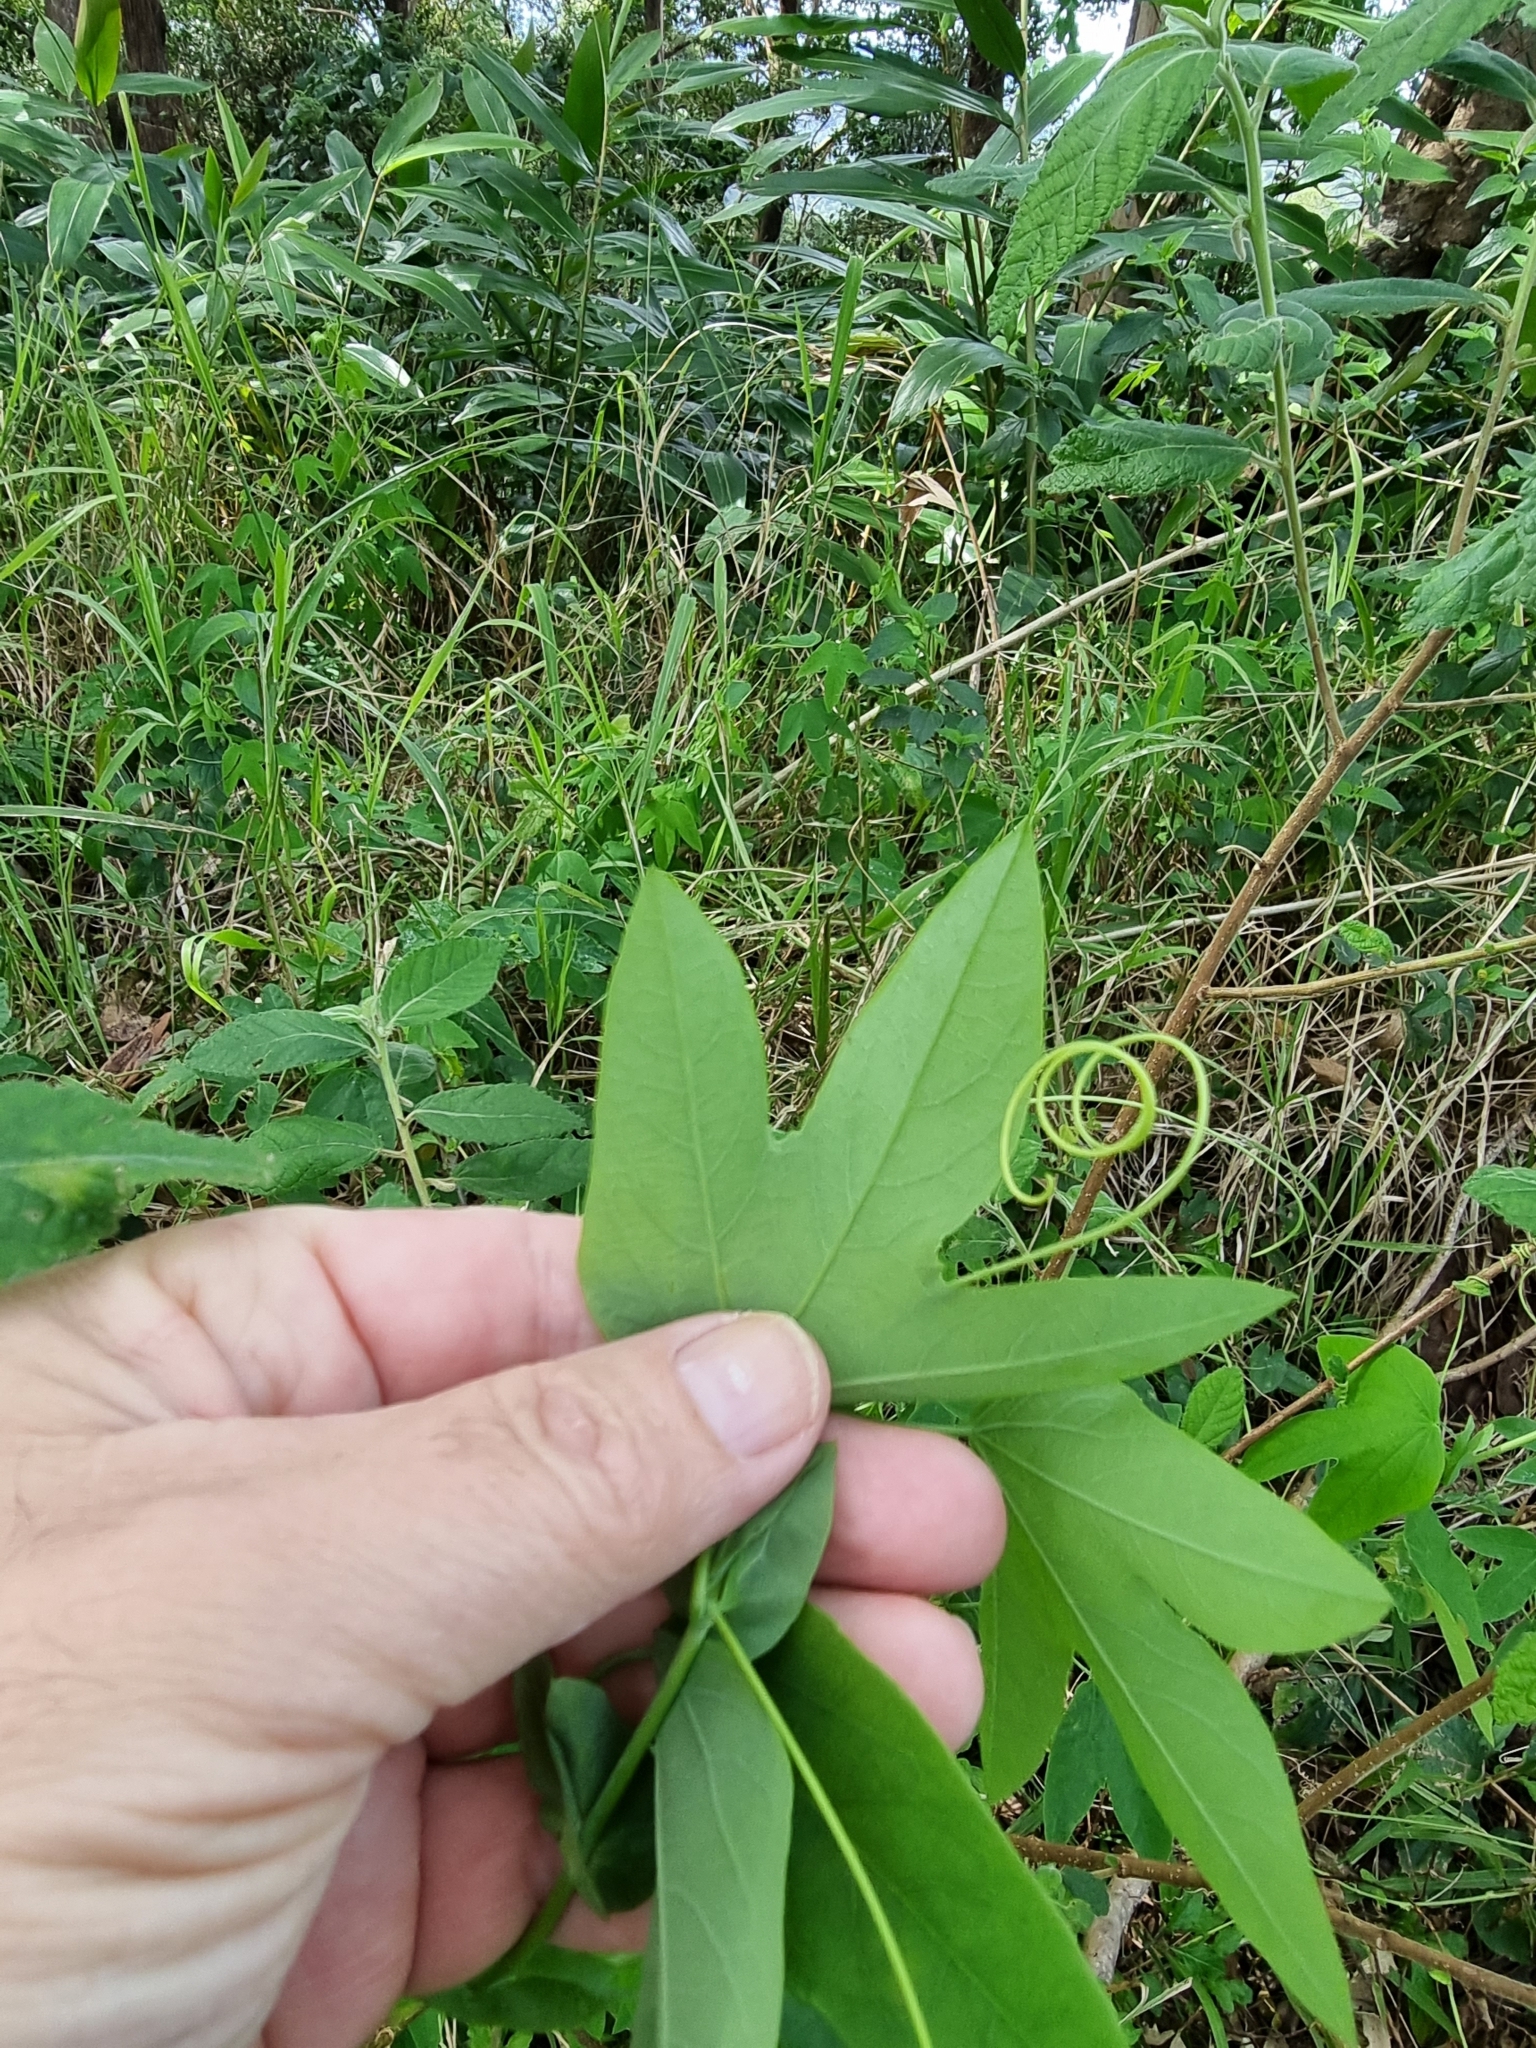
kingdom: Plantae
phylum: Tracheophyta
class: Magnoliopsida
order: Malpighiales
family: Passifloraceae
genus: Passiflora
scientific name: Passiflora subpeltata
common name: White passionflower
